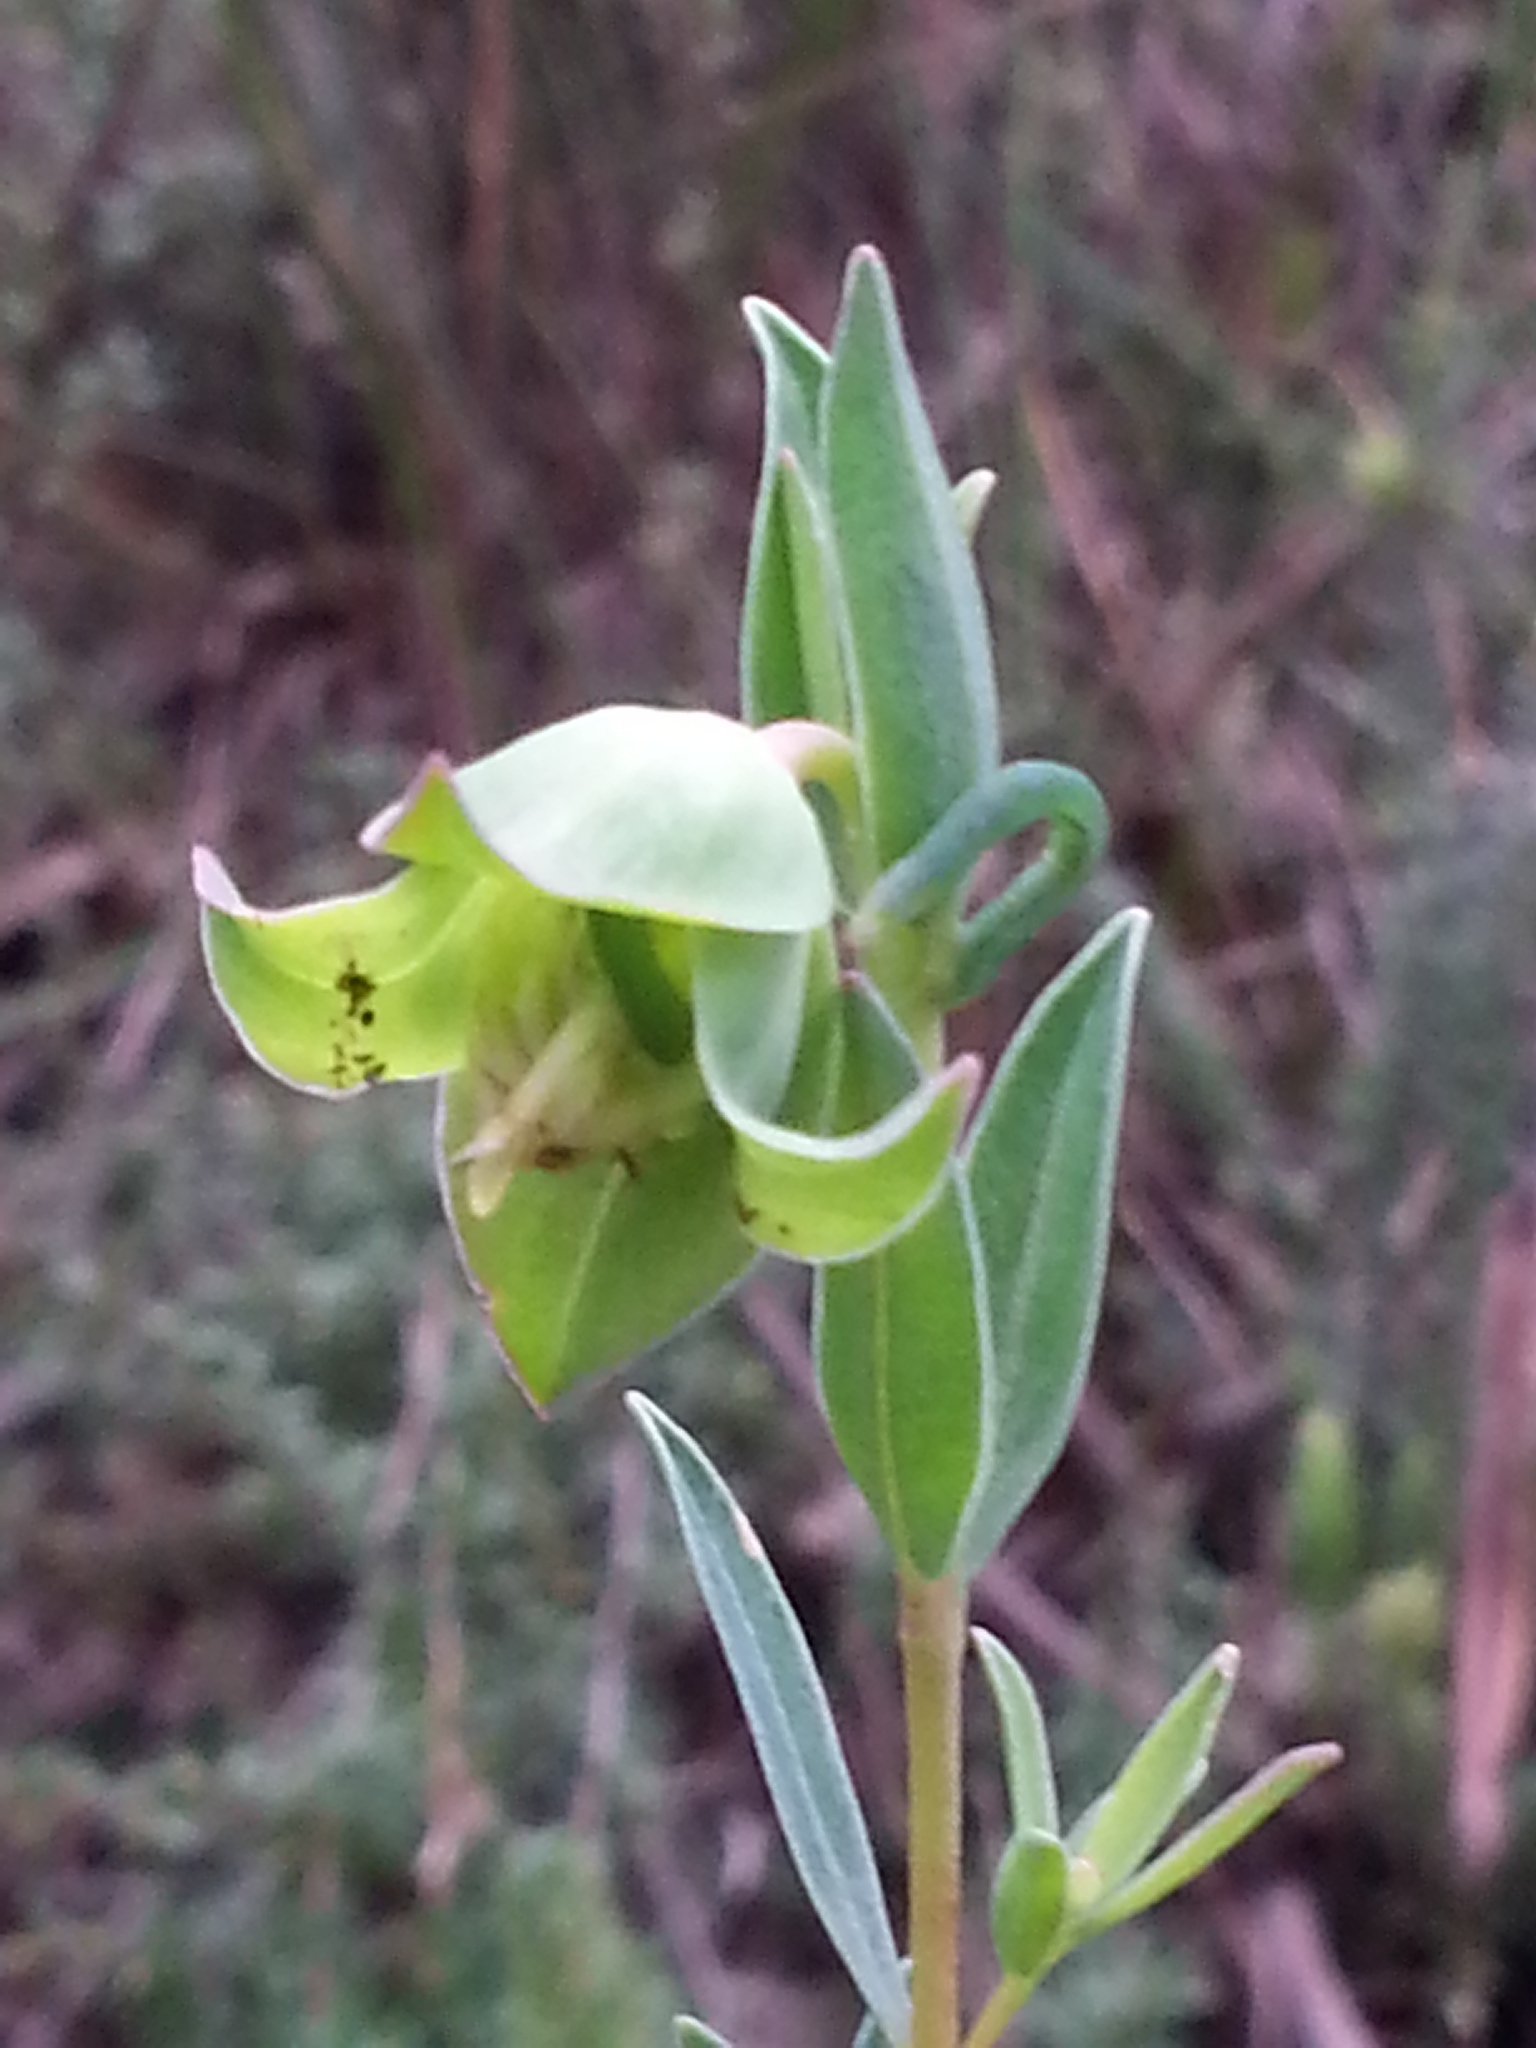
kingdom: Plantae
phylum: Tracheophyta
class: Magnoliopsida
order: Malvales
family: Thymelaeaceae
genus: Pimelea
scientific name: Pimelea linifolia
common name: Queen-of-the-bush
